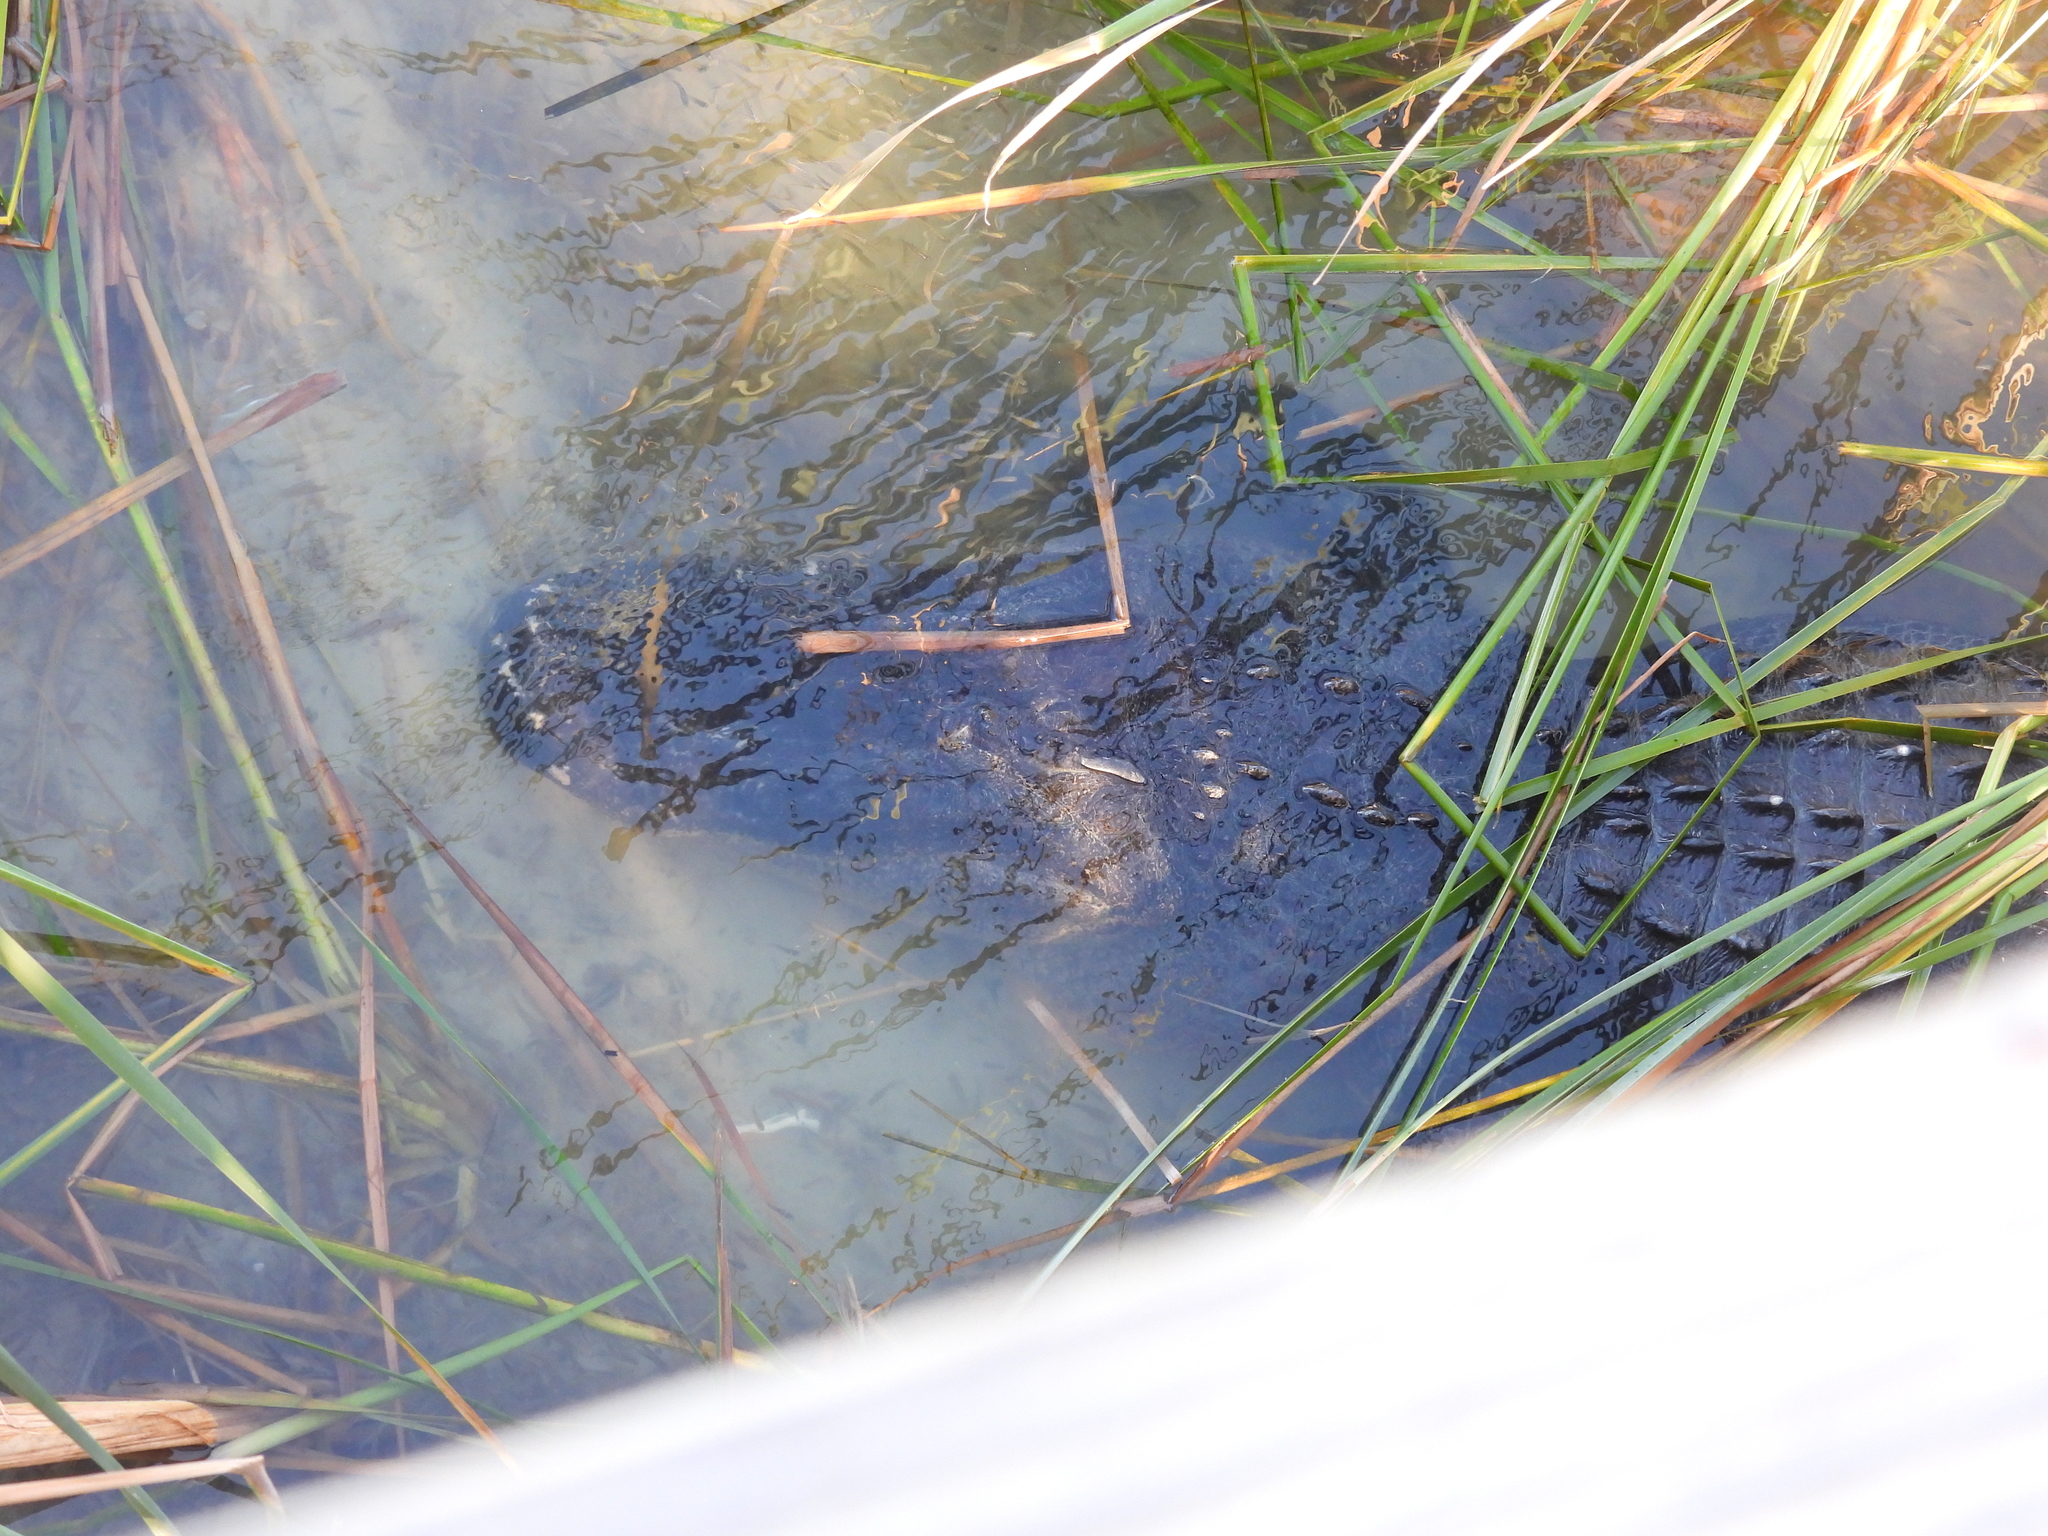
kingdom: Animalia
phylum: Chordata
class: Crocodylia
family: Alligatoridae
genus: Alligator
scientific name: Alligator mississippiensis
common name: American alligator
